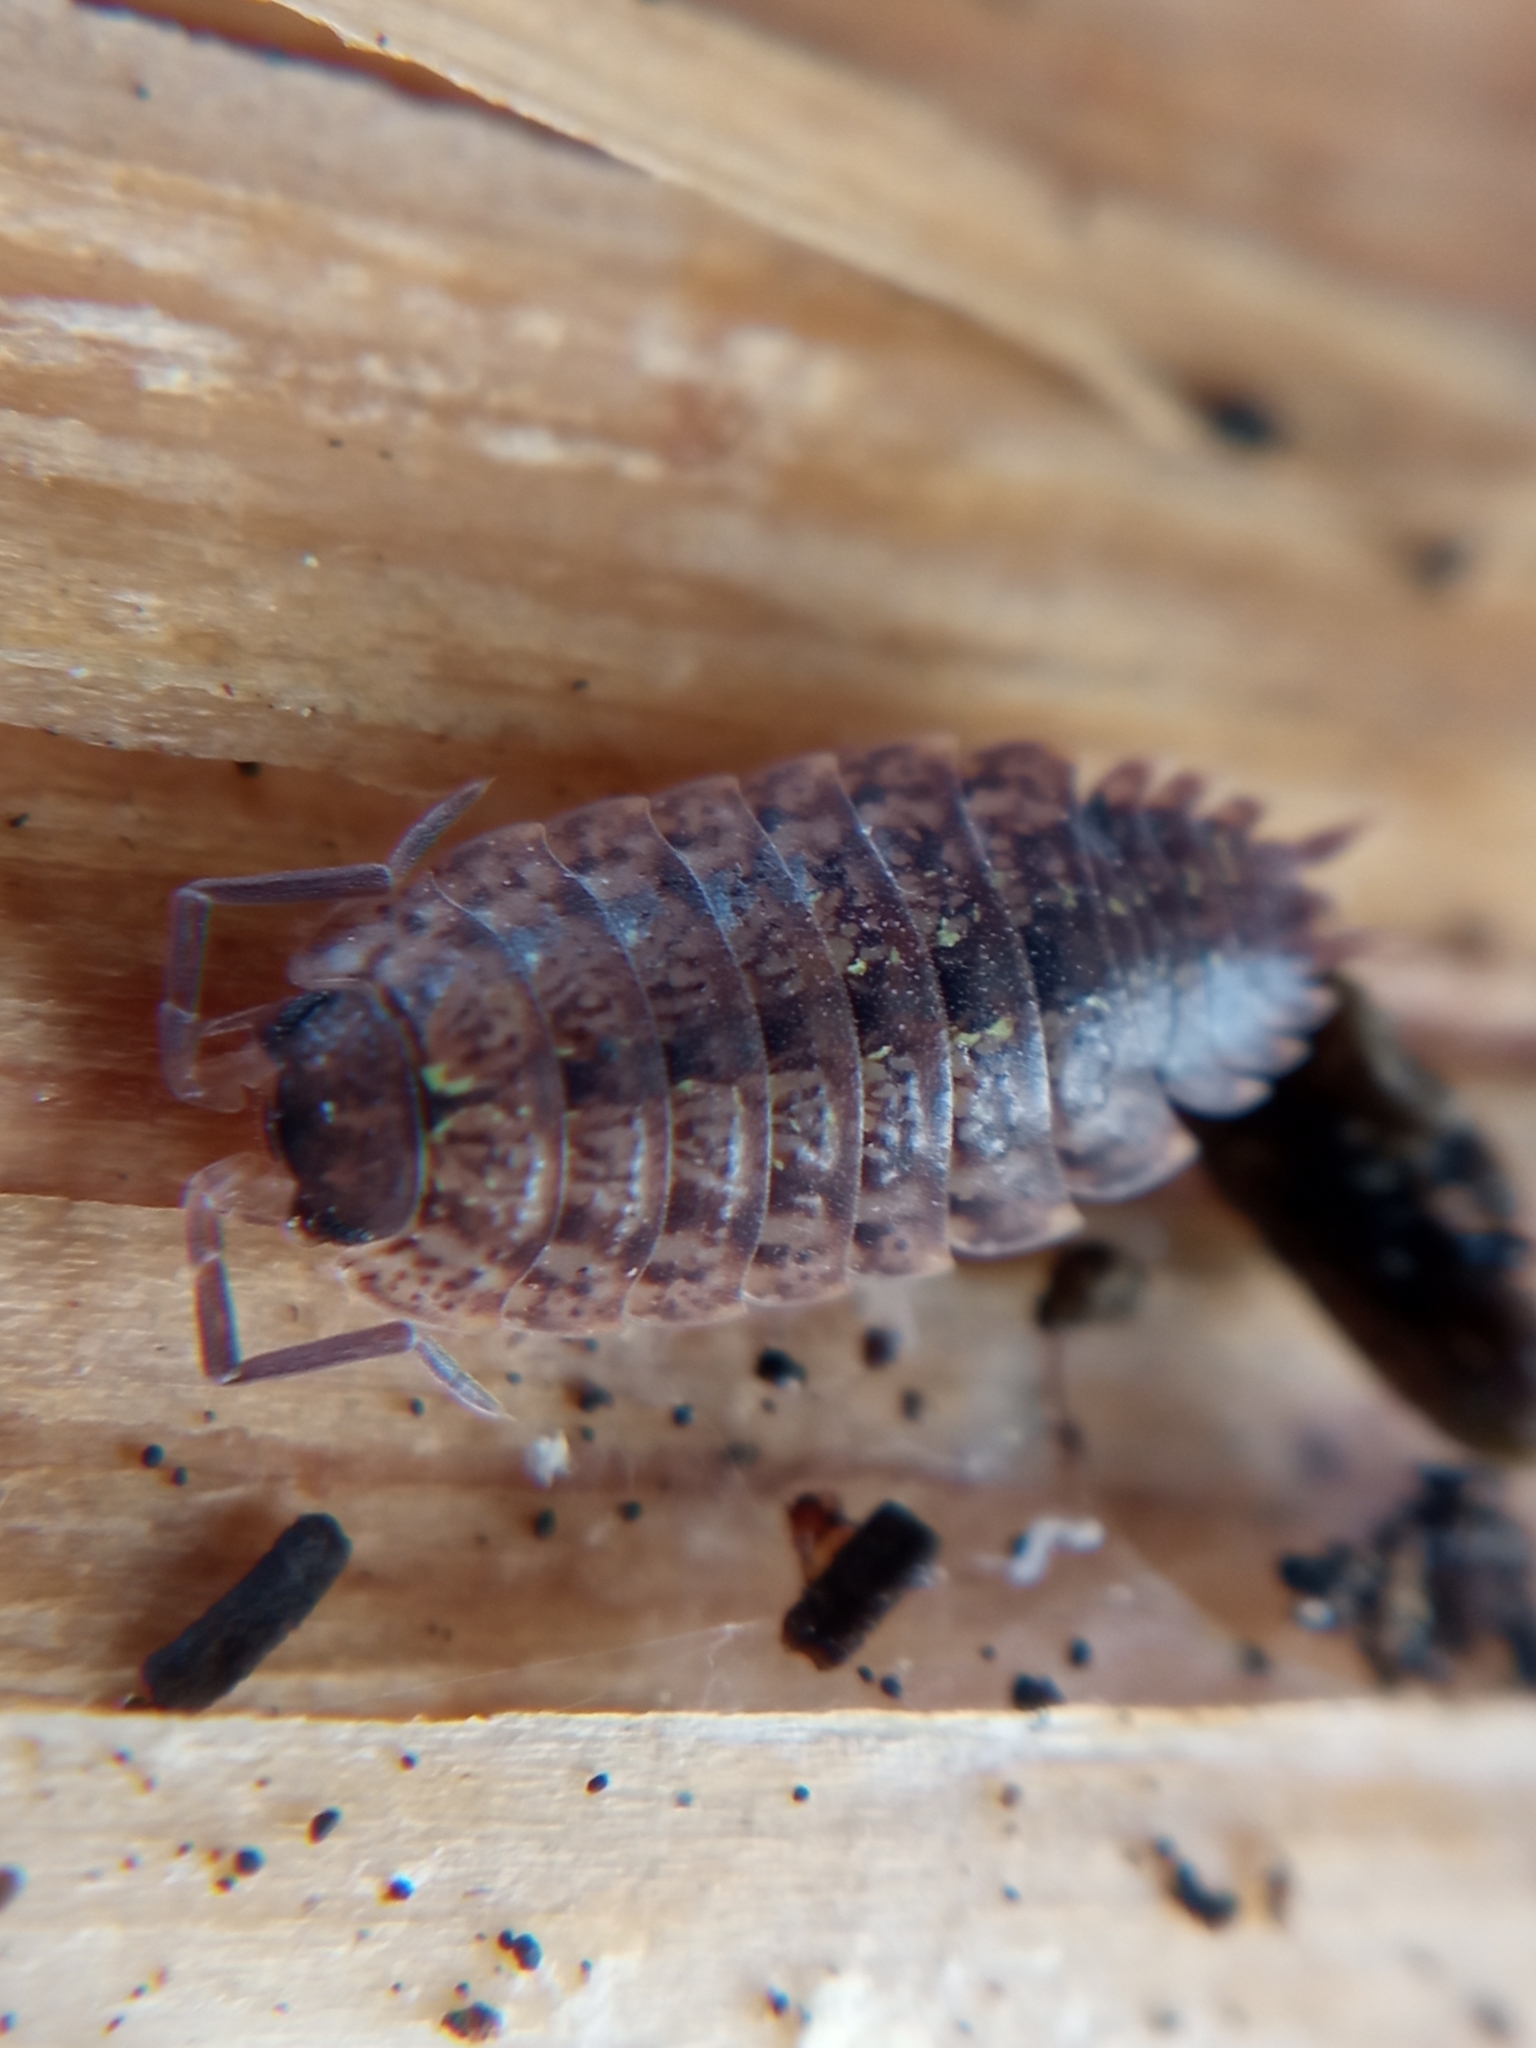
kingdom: Animalia
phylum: Arthropoda
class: Malacostraca
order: Isopoda
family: Porcellionidae
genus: Porcellio
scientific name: Porcellio monticola
